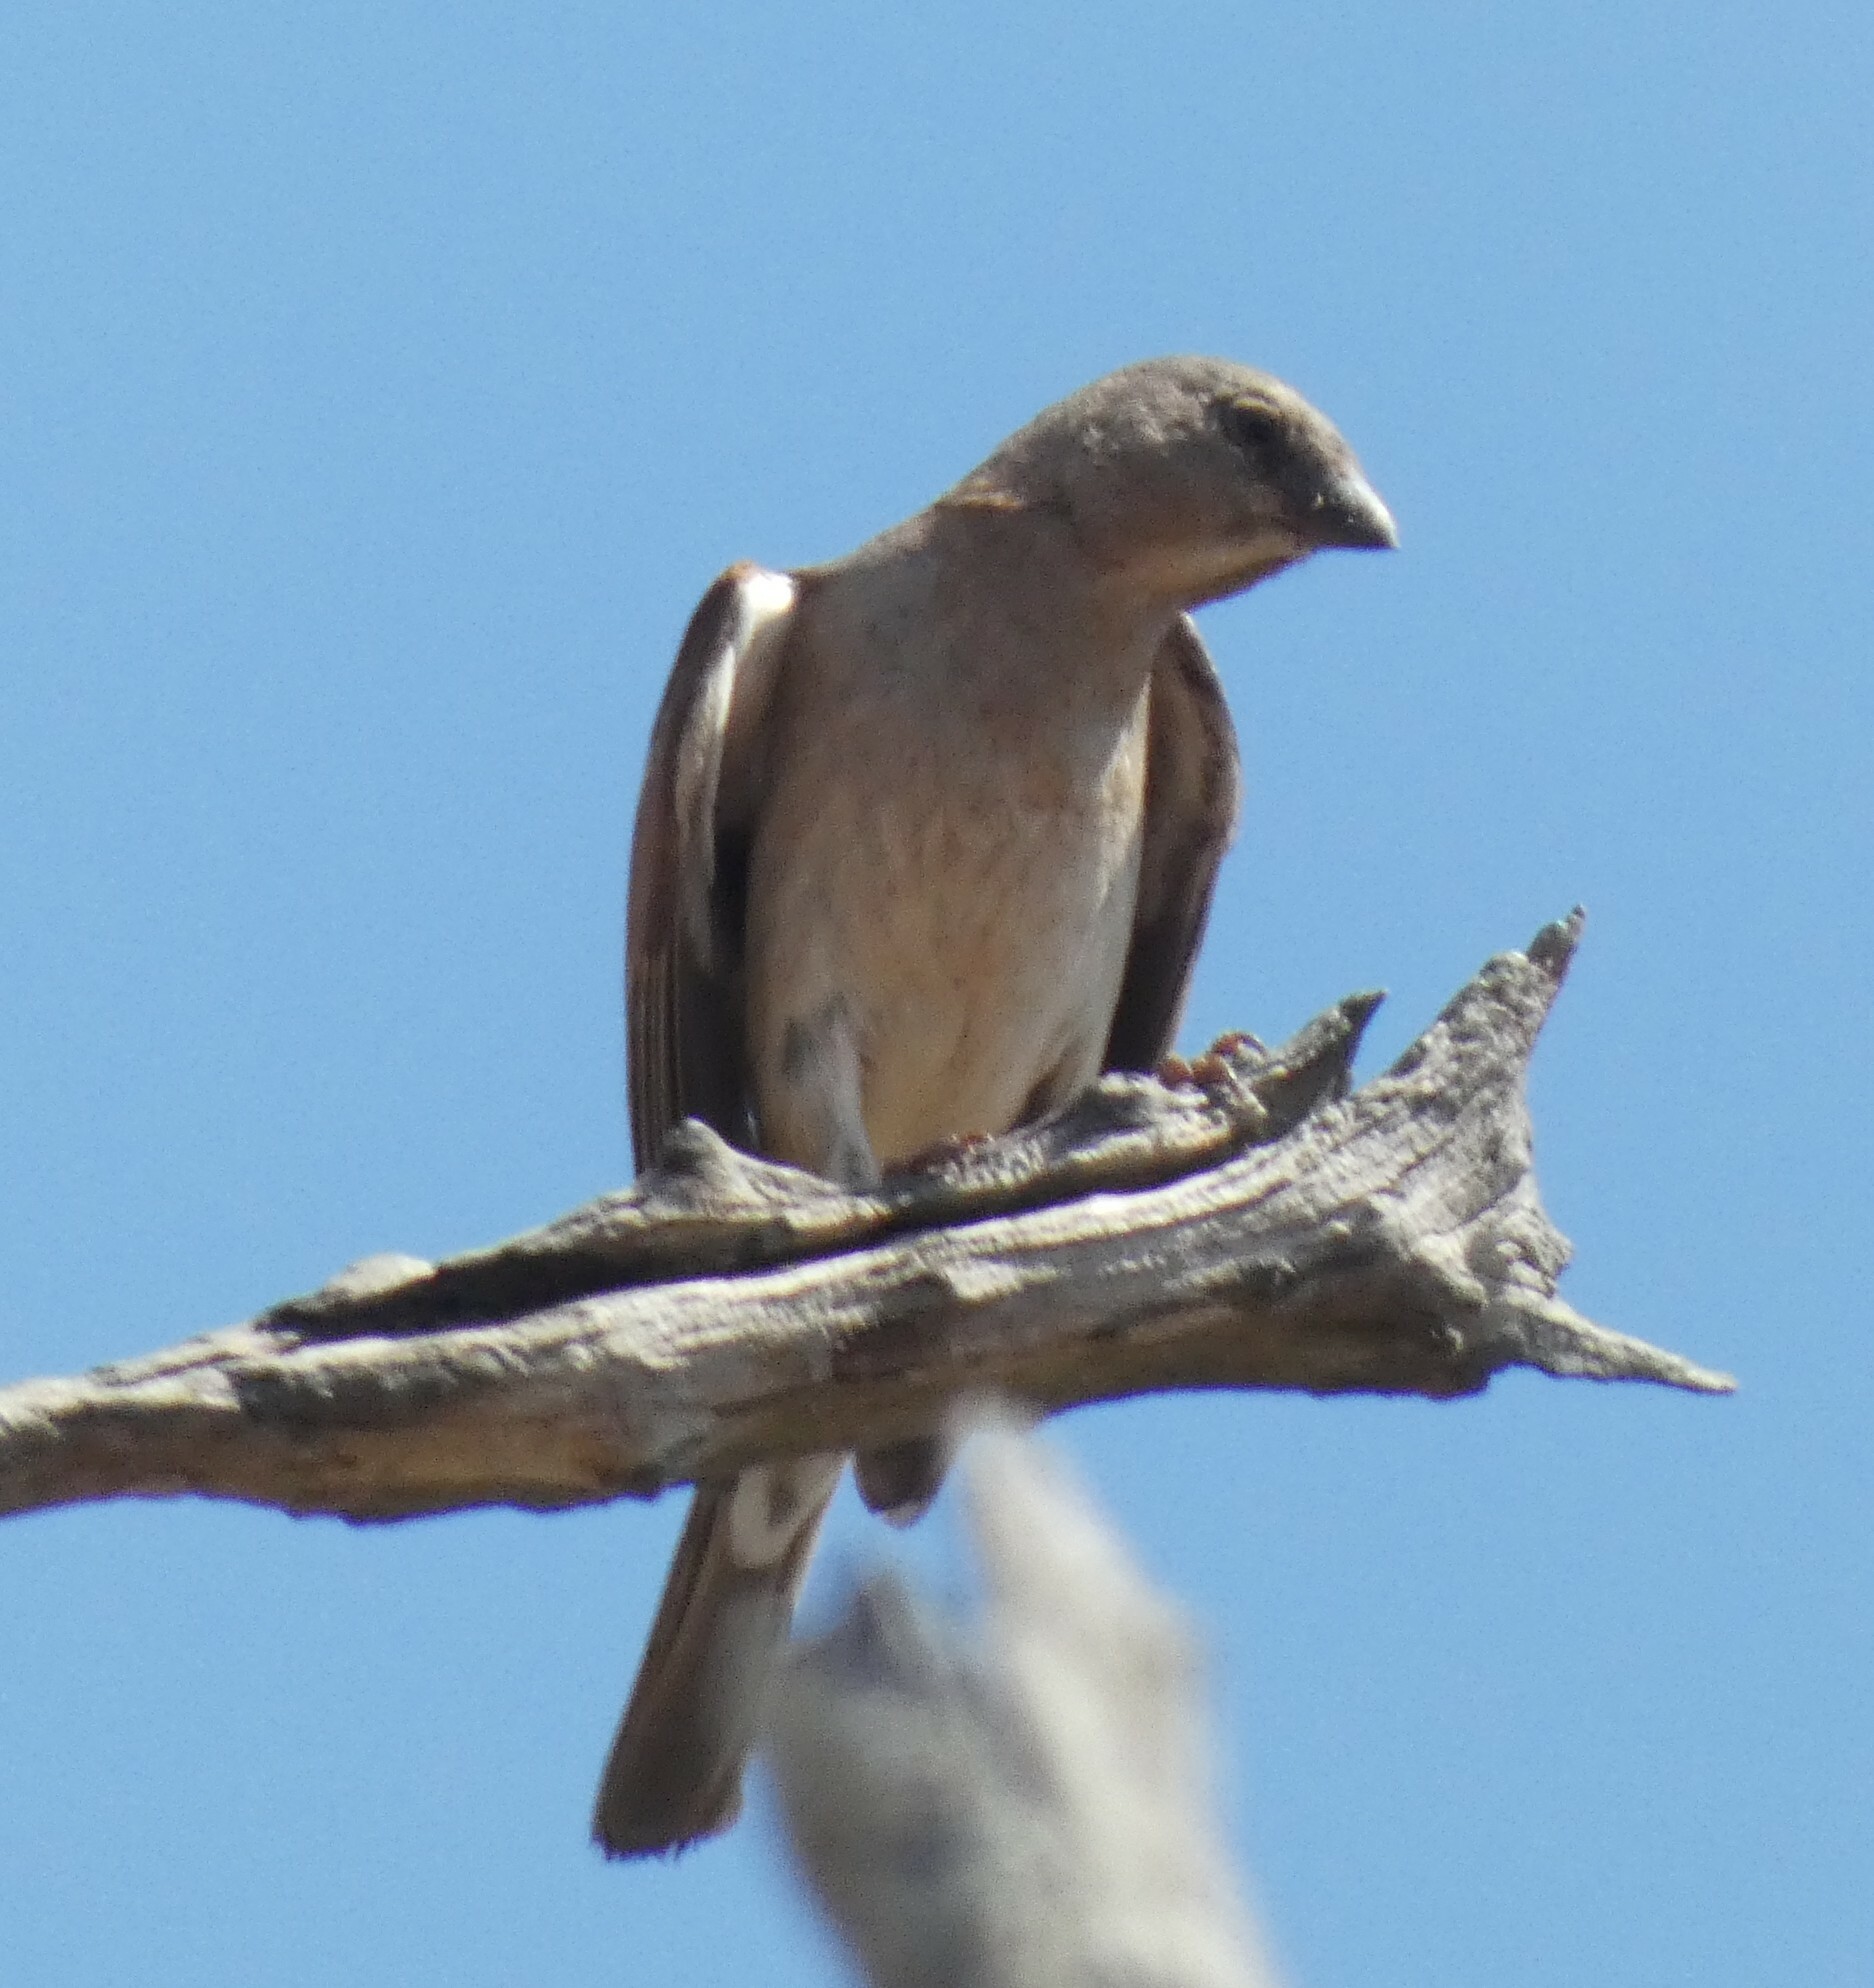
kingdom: Animalia
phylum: Chordata
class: Aves
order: Passeriformes
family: Passeridae
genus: Passer
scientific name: Passer diffusus
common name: Southern grey-headed sparrow
